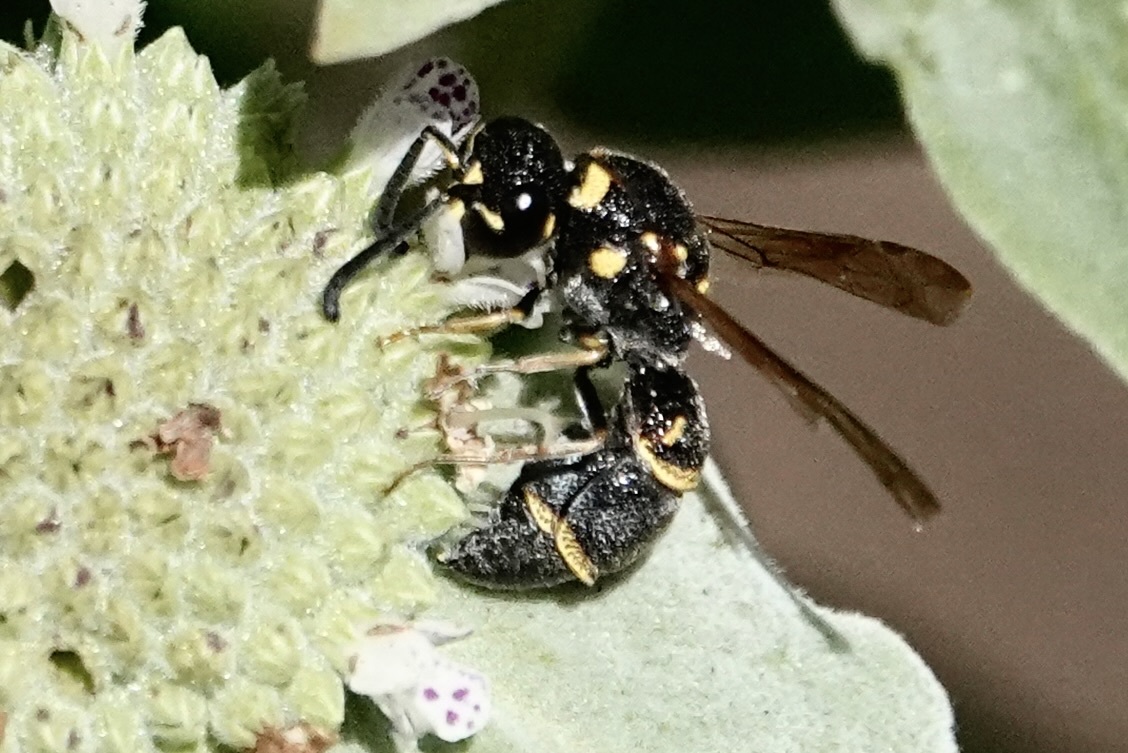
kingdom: Animalia
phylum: Arthropoda
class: Insecta
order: Hymenoptera
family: Eumenidae
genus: Parancistrocerus
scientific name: Parancistrocerus fulvipes
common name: Potter wasp
